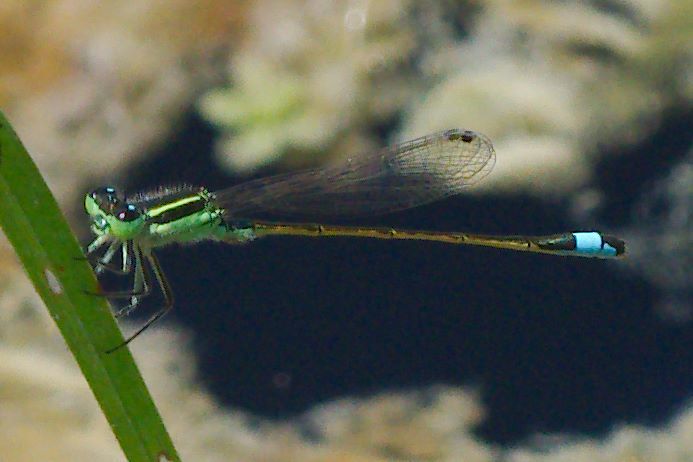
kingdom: Animalia
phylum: Arthropoda
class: Insecta
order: Odonata
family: Coenagrionidae
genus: Ischnura
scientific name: Ischnura ramburii
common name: Rambur's forktail
